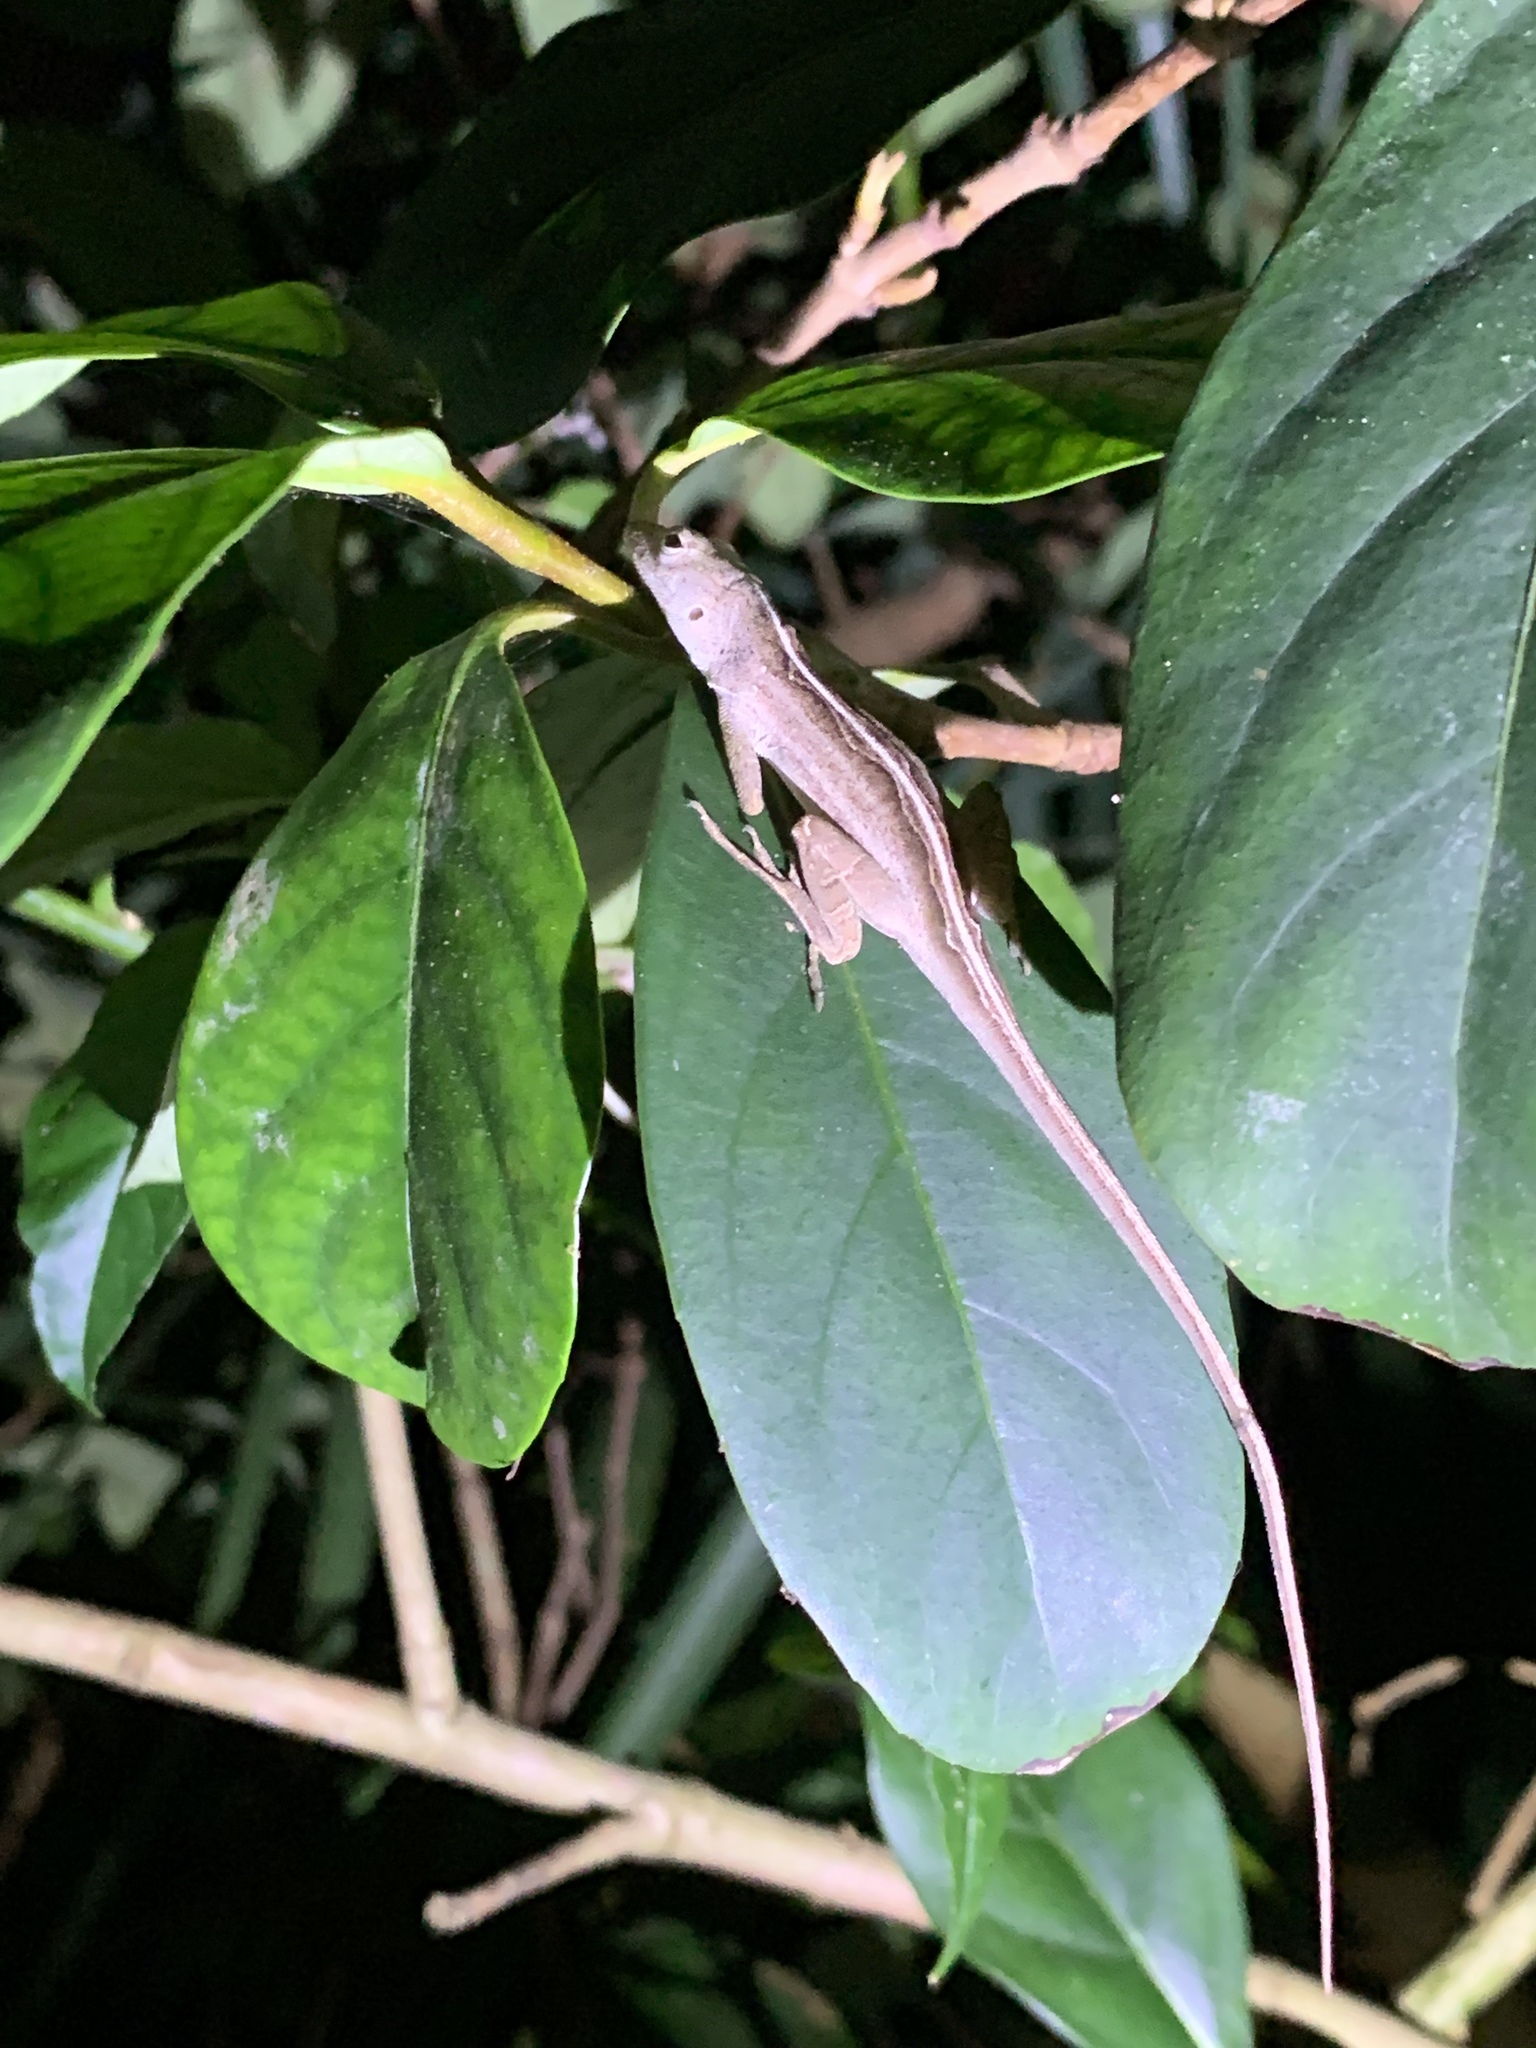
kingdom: Animalia
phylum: Chordata
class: Squamata
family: Dactyloidae
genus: Anolis
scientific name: Anolis sagrei
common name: Brown anole
